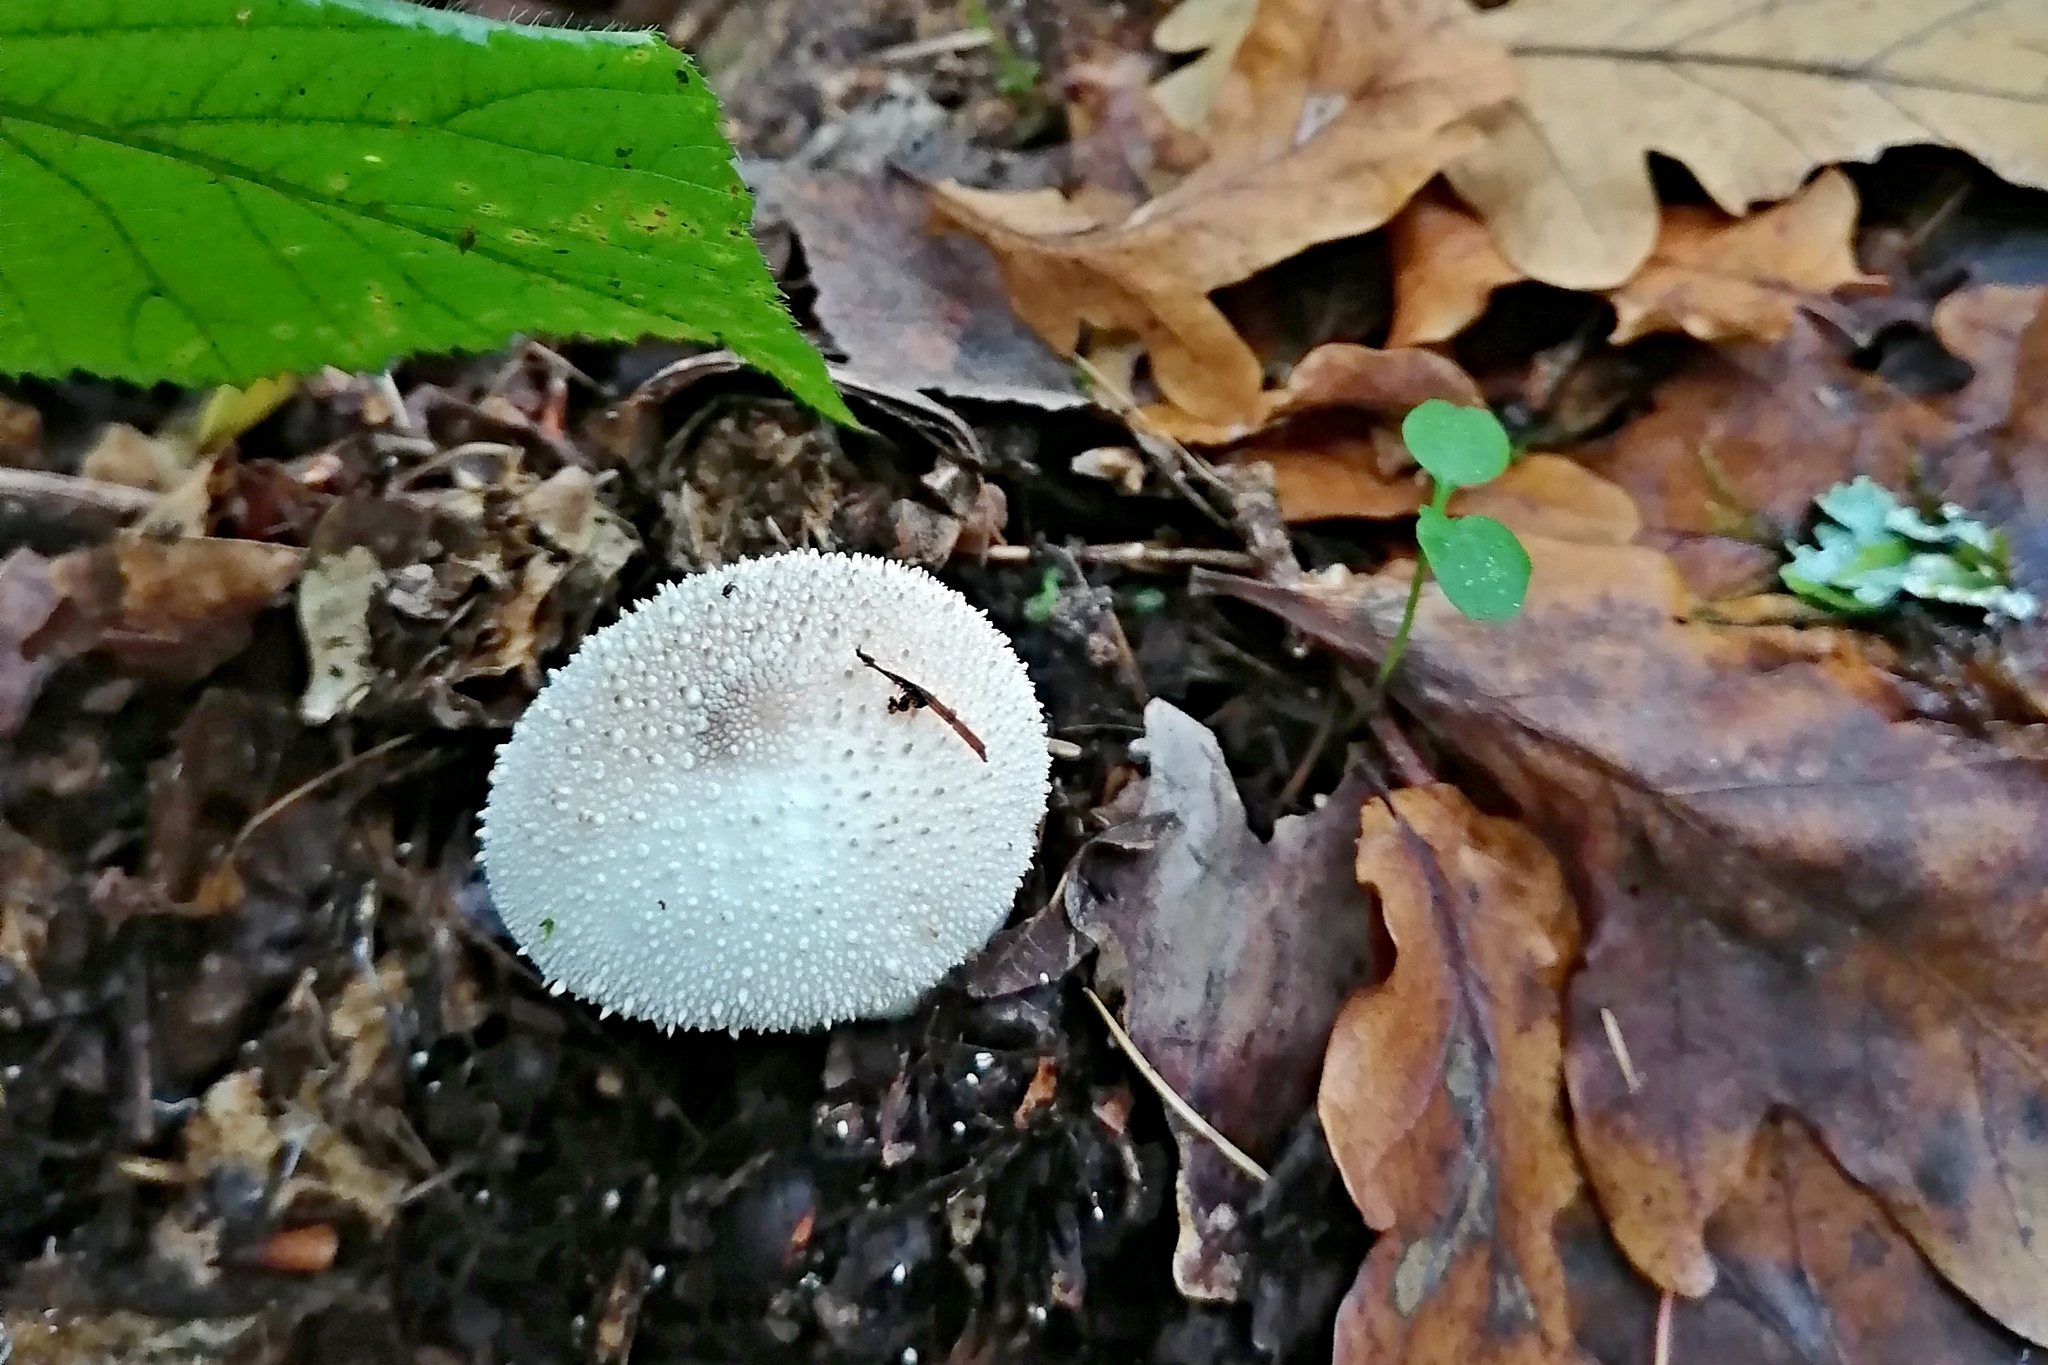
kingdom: Fungi
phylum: Basidiomycota
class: Agaricomycetes
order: Agaricales
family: Lycoperdaceae
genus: Lycoperdon
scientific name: Lycoperdon perlatum
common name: Common puffball
